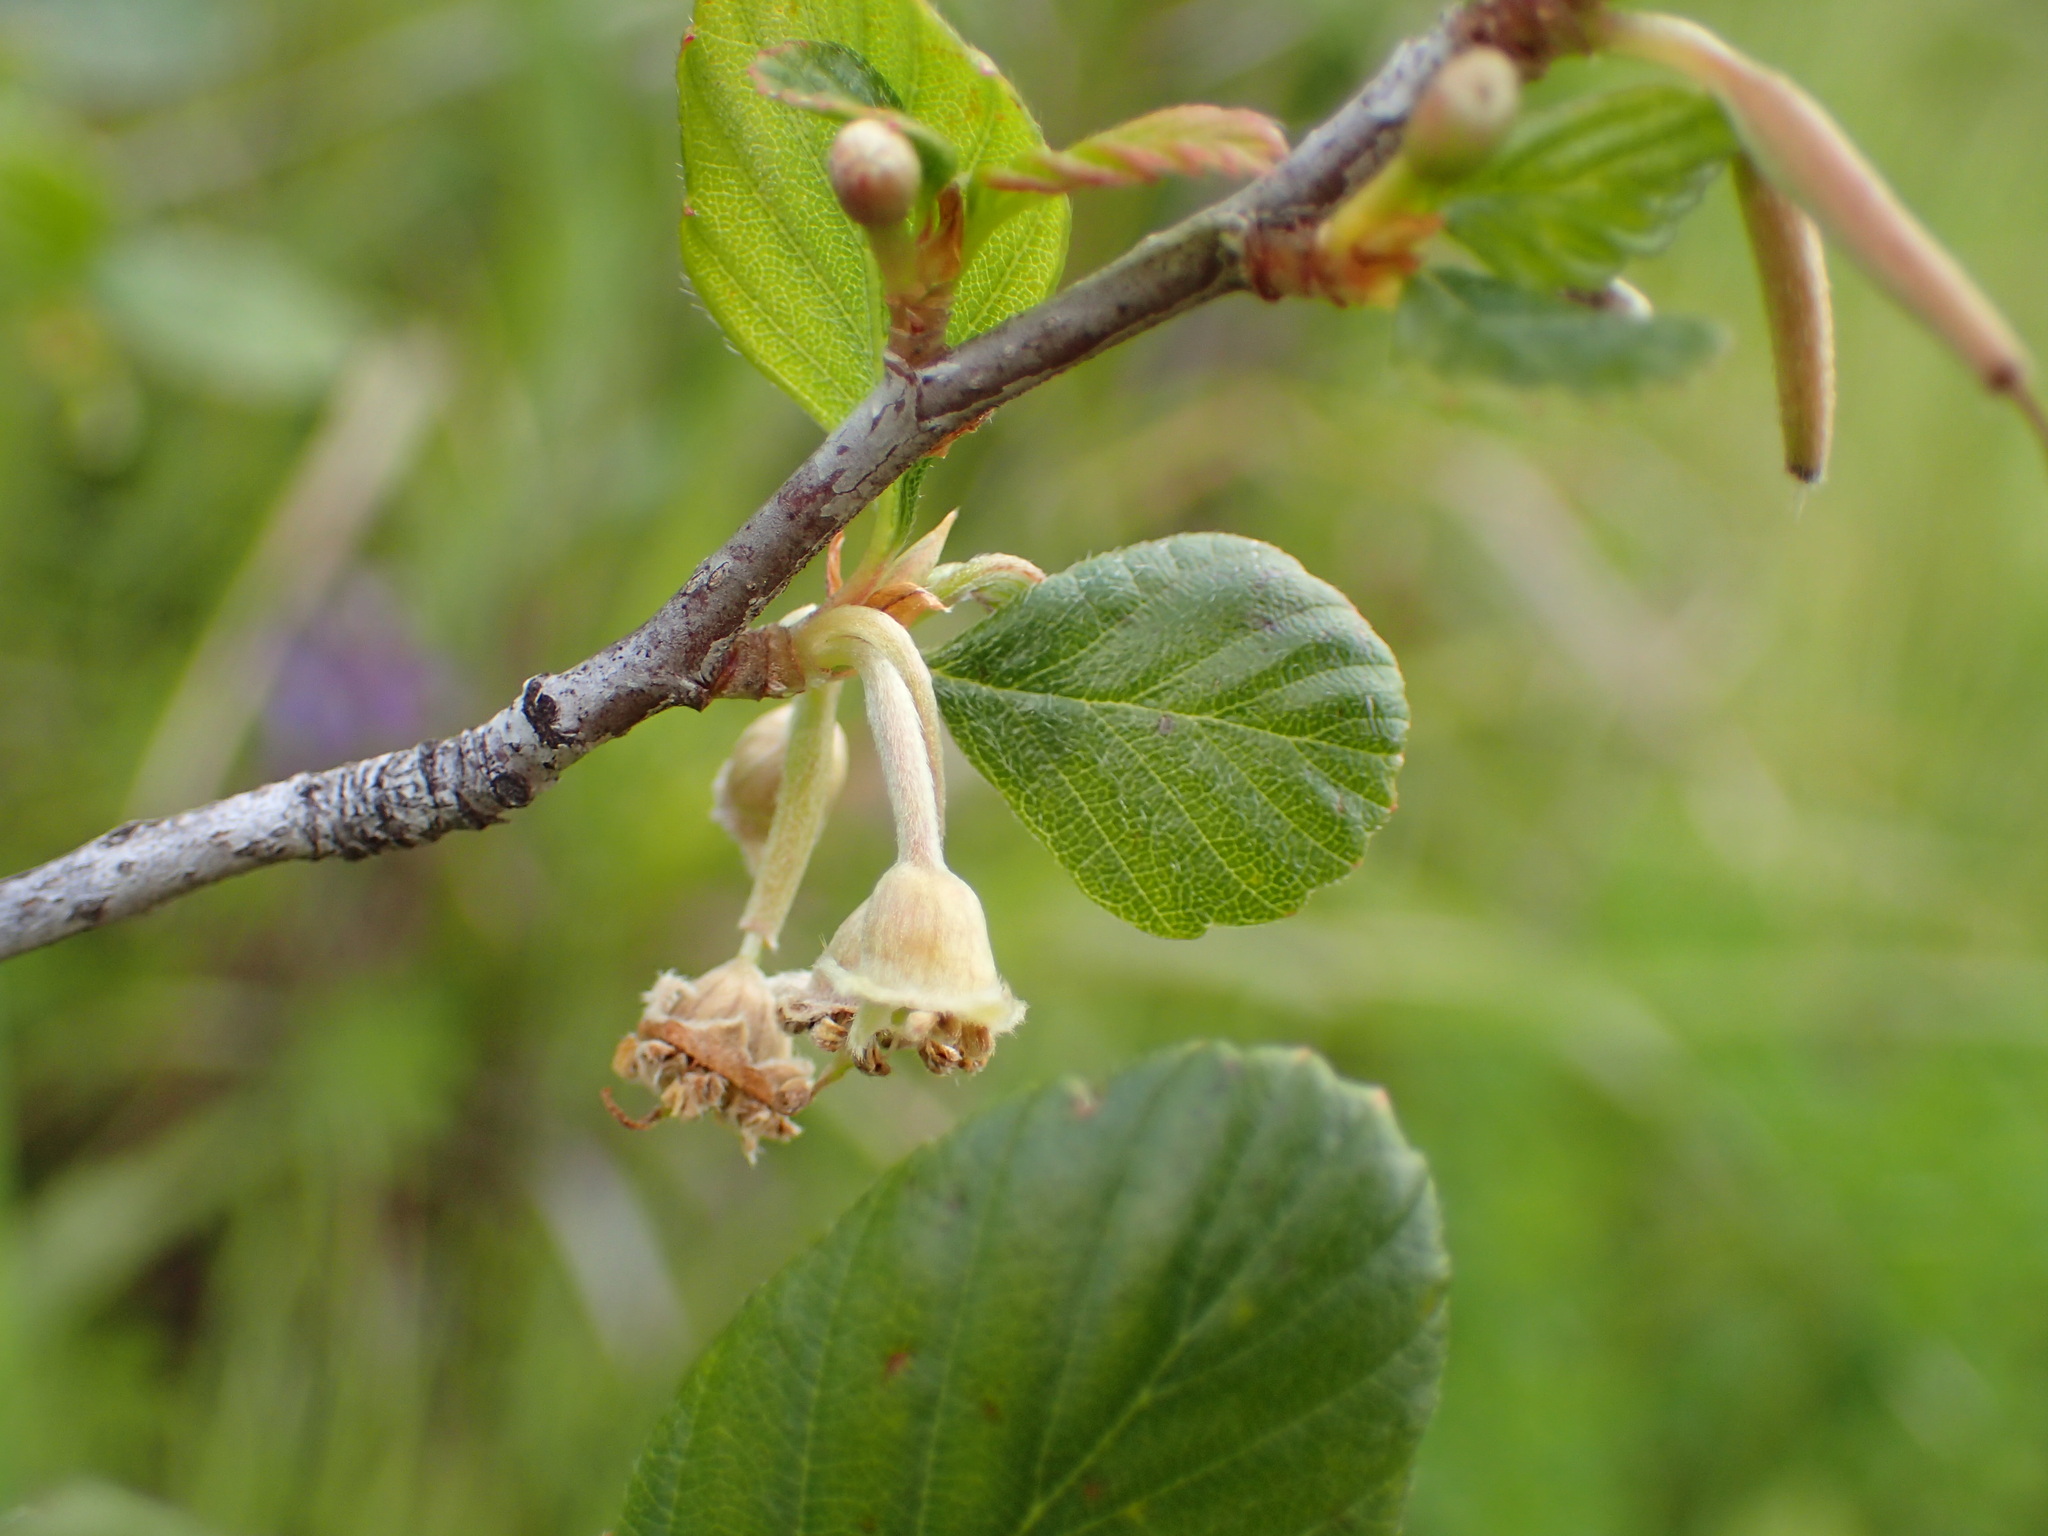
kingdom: Plantae
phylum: Tracheophyta
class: Magnoliopsida
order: Rosales
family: Rosaceae
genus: Cercocarpus
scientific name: Cercocarpus betuloides
